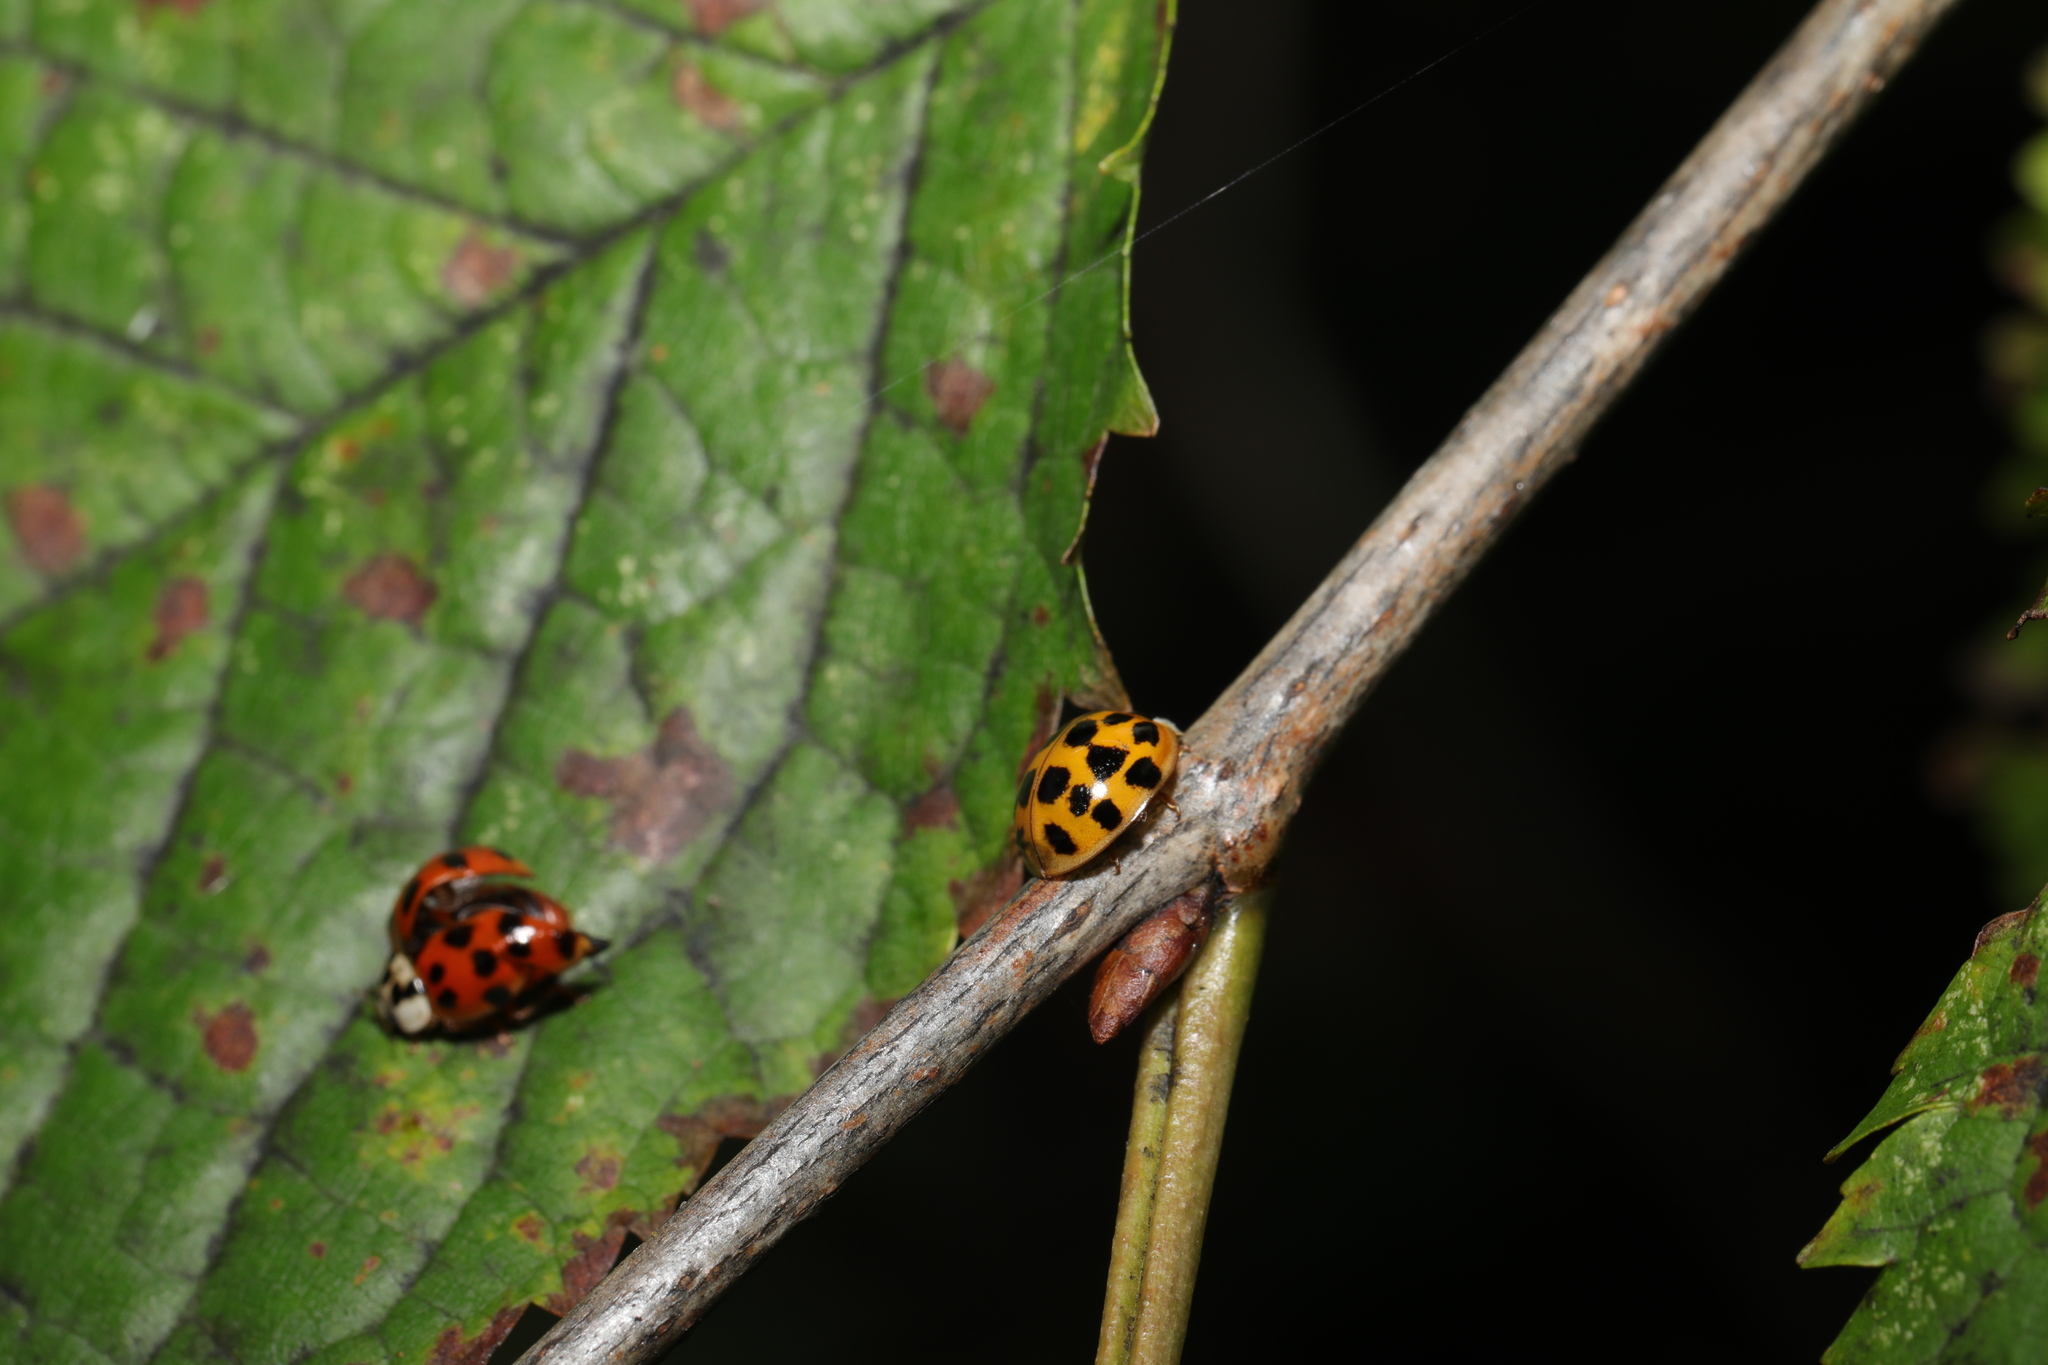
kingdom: Animalia
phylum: Arthropoda
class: Insecta
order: Coleoptera
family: Coccinellidae
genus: Harmonia
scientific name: Harmonia axyridis
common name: Harlequin ladybird
